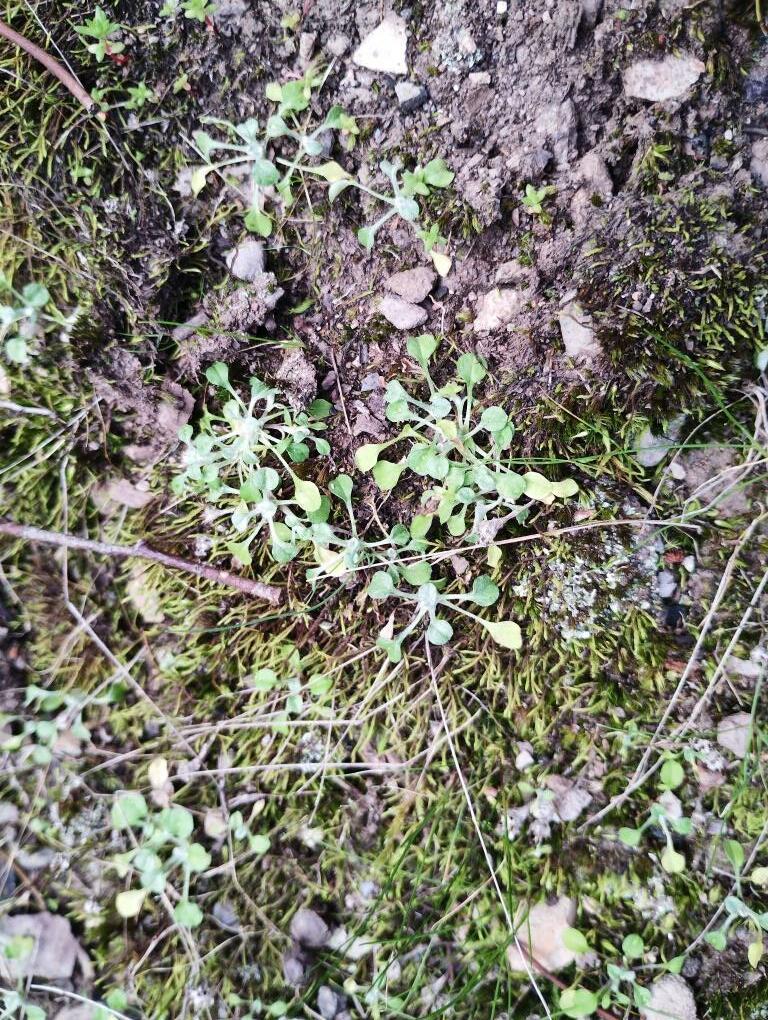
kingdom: Plantae
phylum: Tracheophyta
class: Magnoliopsida
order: Asterales
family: Asteraceae
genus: Stuartina
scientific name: Stuartina muelleri
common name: Spoon-leaved cudweed
